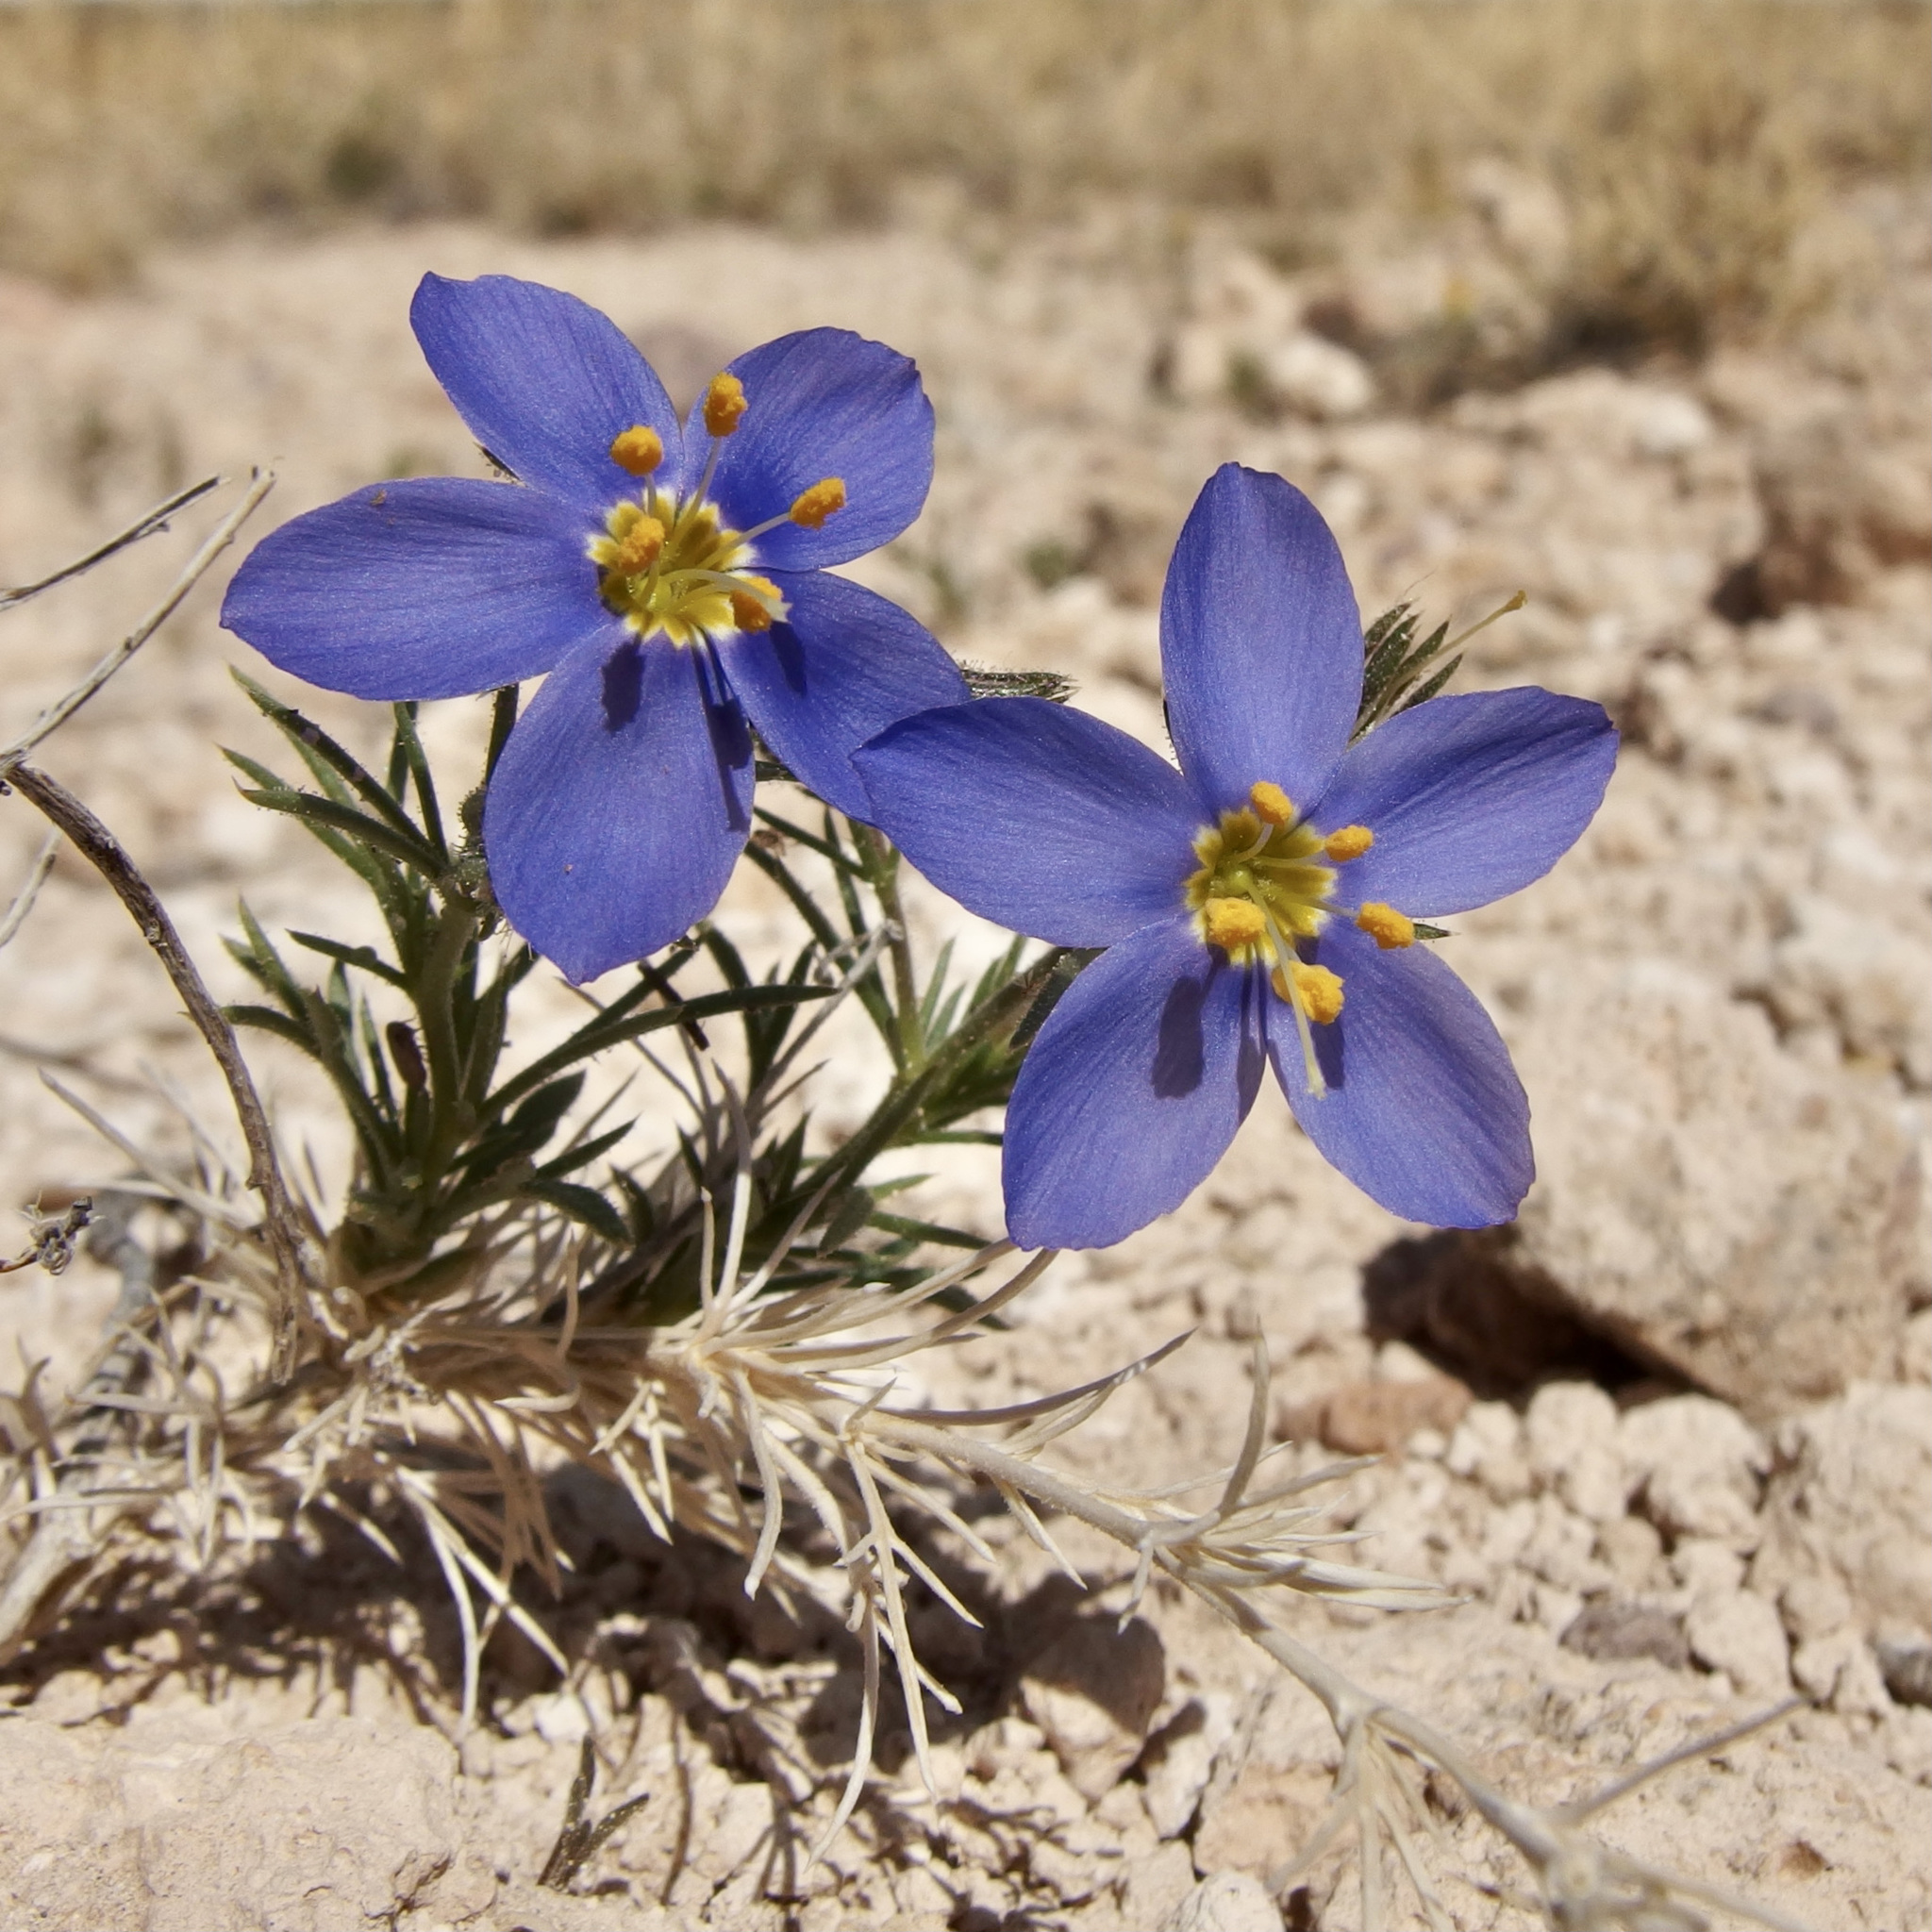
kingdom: Plantae
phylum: Tracheophyta
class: Magnoliopsida
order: Ericales
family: Polemoniaceae
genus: Giliastrum
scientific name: Giliastrum acerosum
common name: Bluebowls
